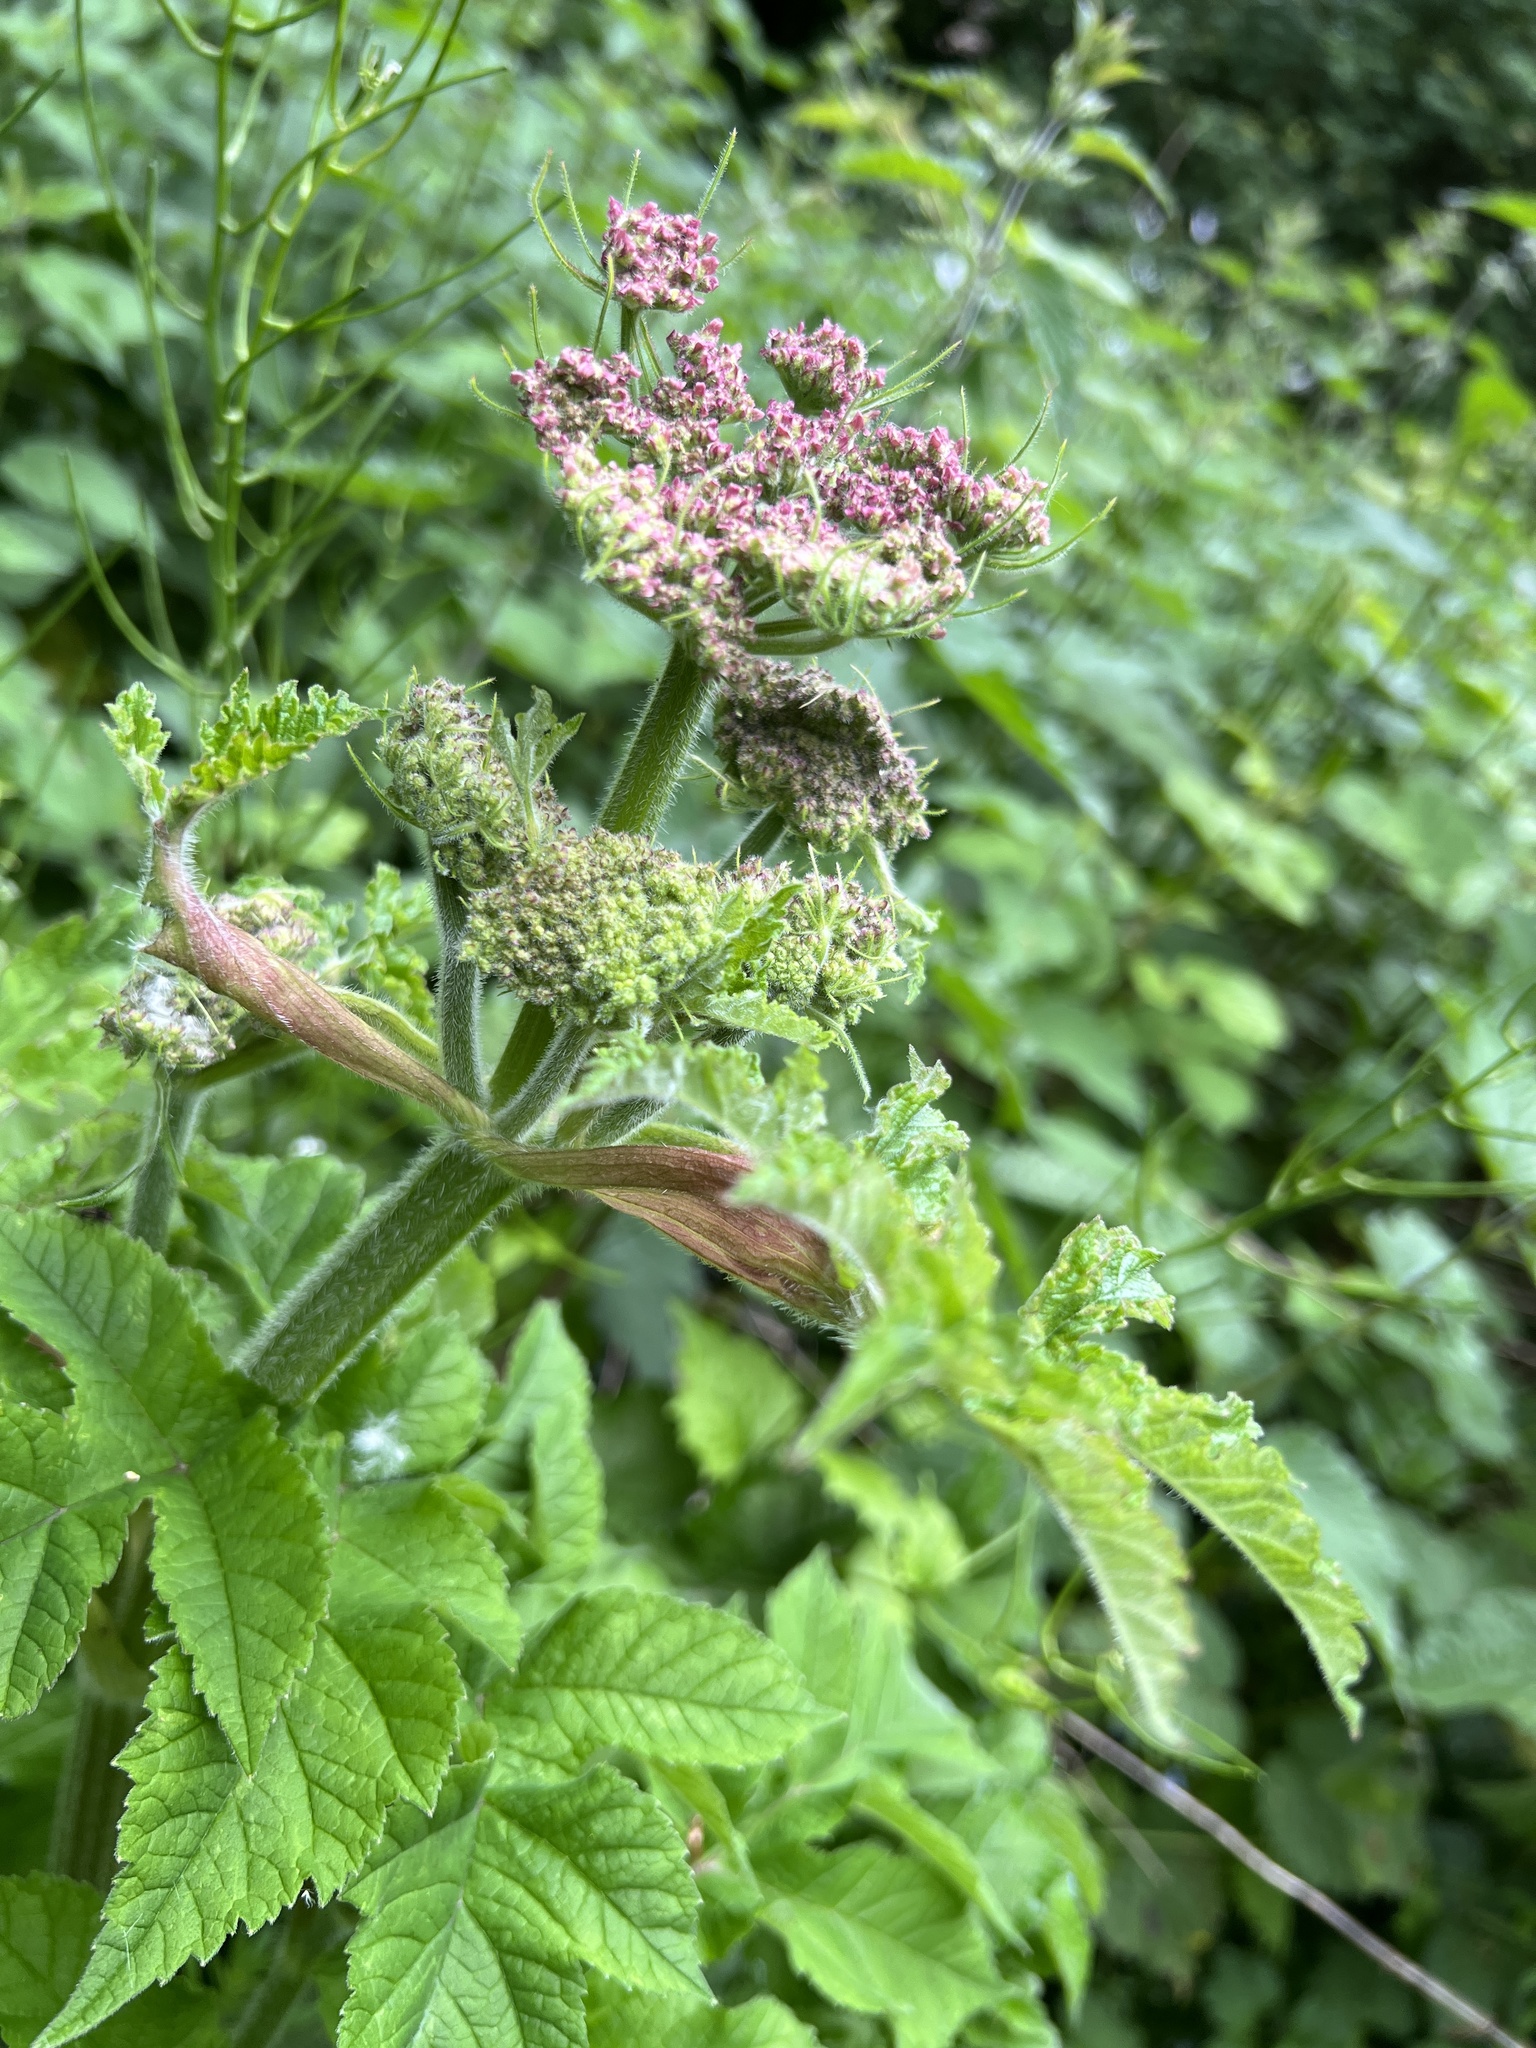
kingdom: Plantae
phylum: Tracheophyta
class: Magnoliopsida
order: Apiales
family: Apiaceae
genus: Heracleum
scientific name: Heracleum sphondylium
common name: Hogweed
